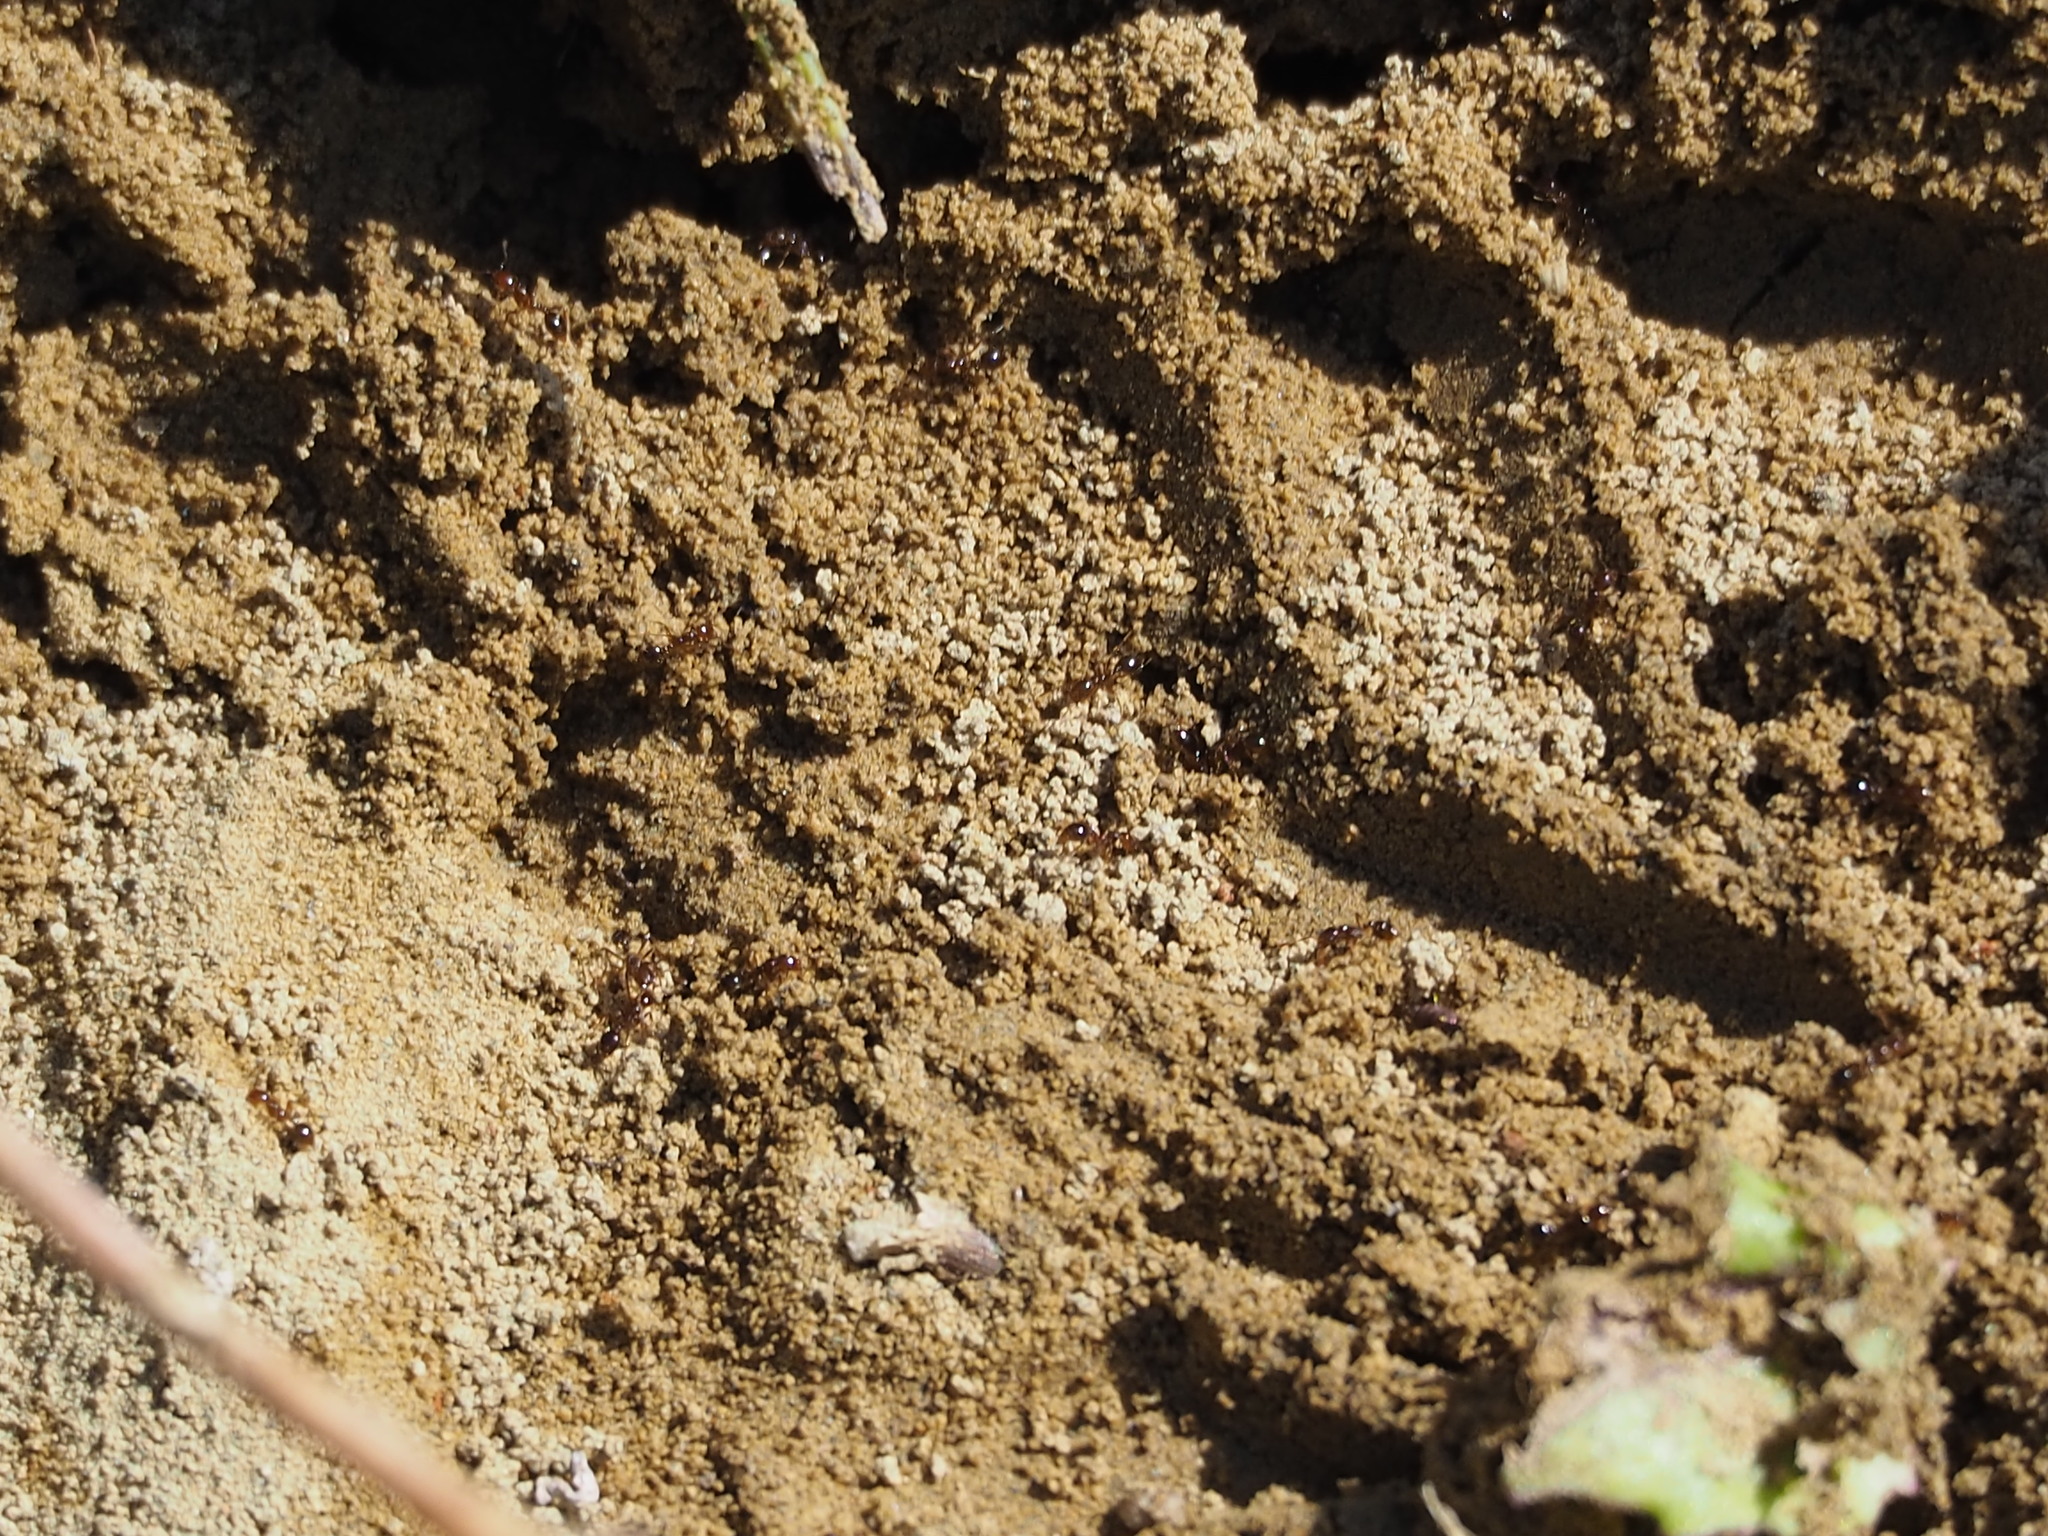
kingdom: Animalia
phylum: Arthropoda
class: Insecta
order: Hymenoptera
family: Formicidae
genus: Solenopsis
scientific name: Solenopsis invicta
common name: Red imported fire ant
